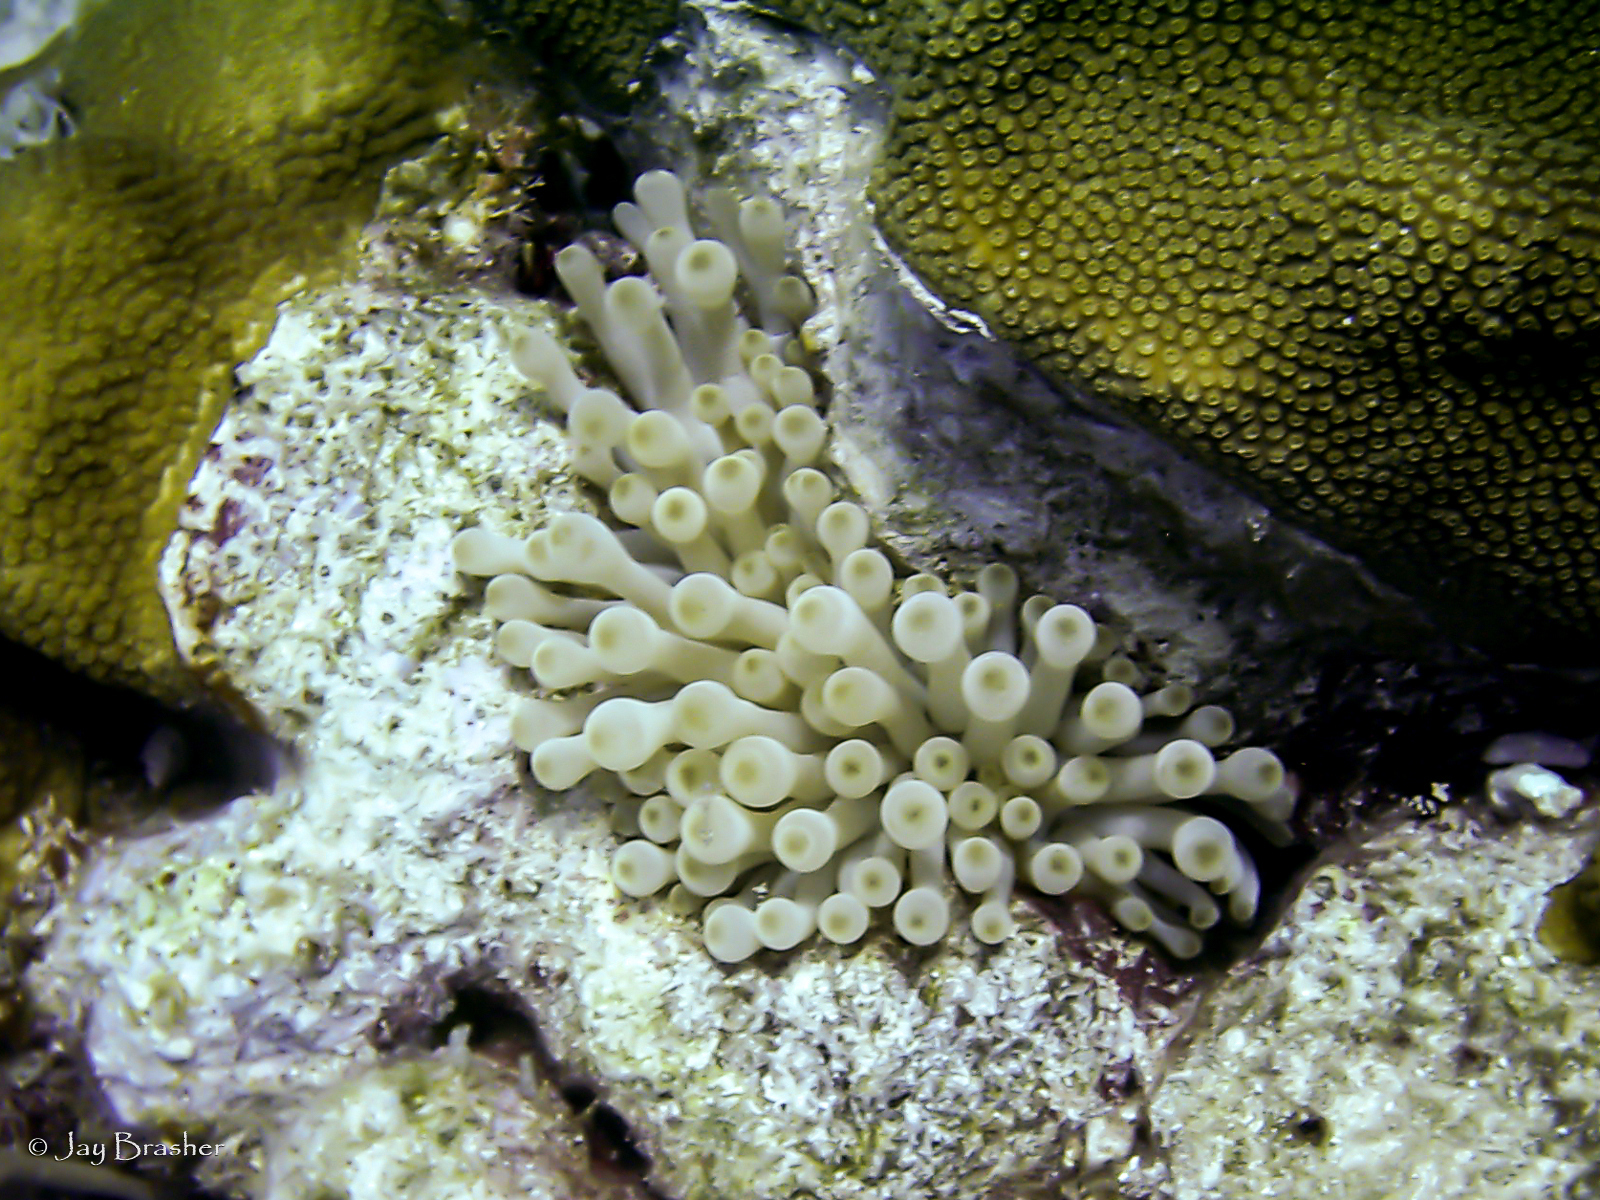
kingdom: Animalia
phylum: Cnidaria
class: Anthozoa
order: Actiniaria
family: Actiniidae
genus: Condylactis
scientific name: Condylactis gigantea
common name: Giant caribbean anemone
